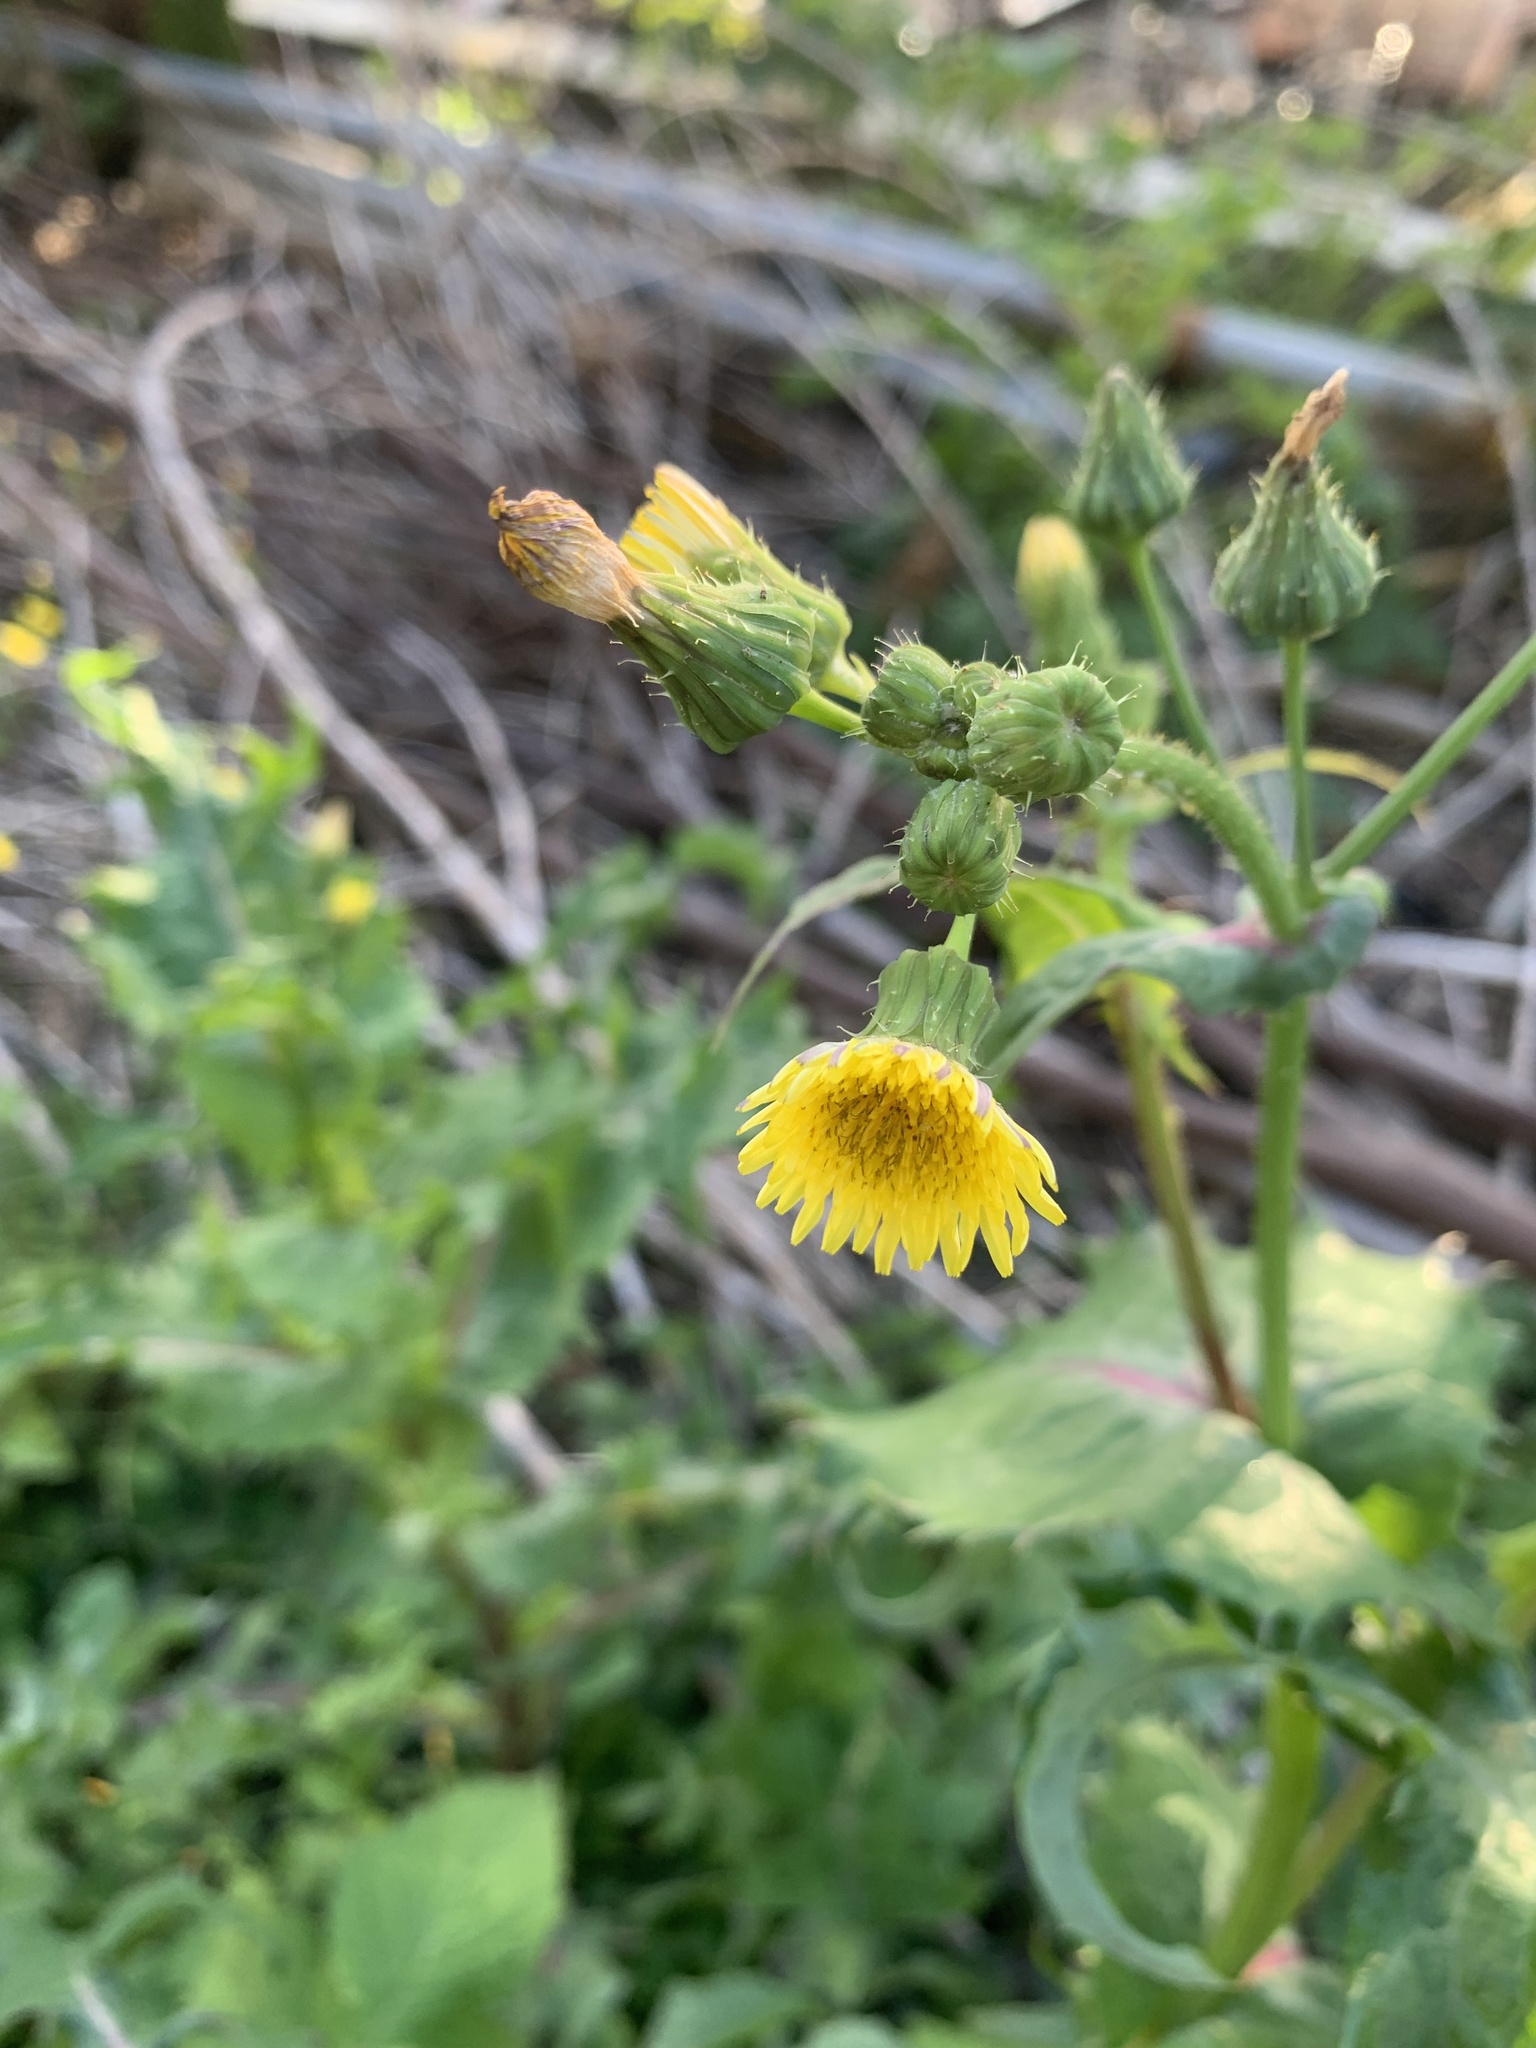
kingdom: Plantae
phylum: Tracheophyta
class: Magnoliopsida
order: Asterales
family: Asteraceae
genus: Sonchus
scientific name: Sonchus oleraceus
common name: Common sowthistle
